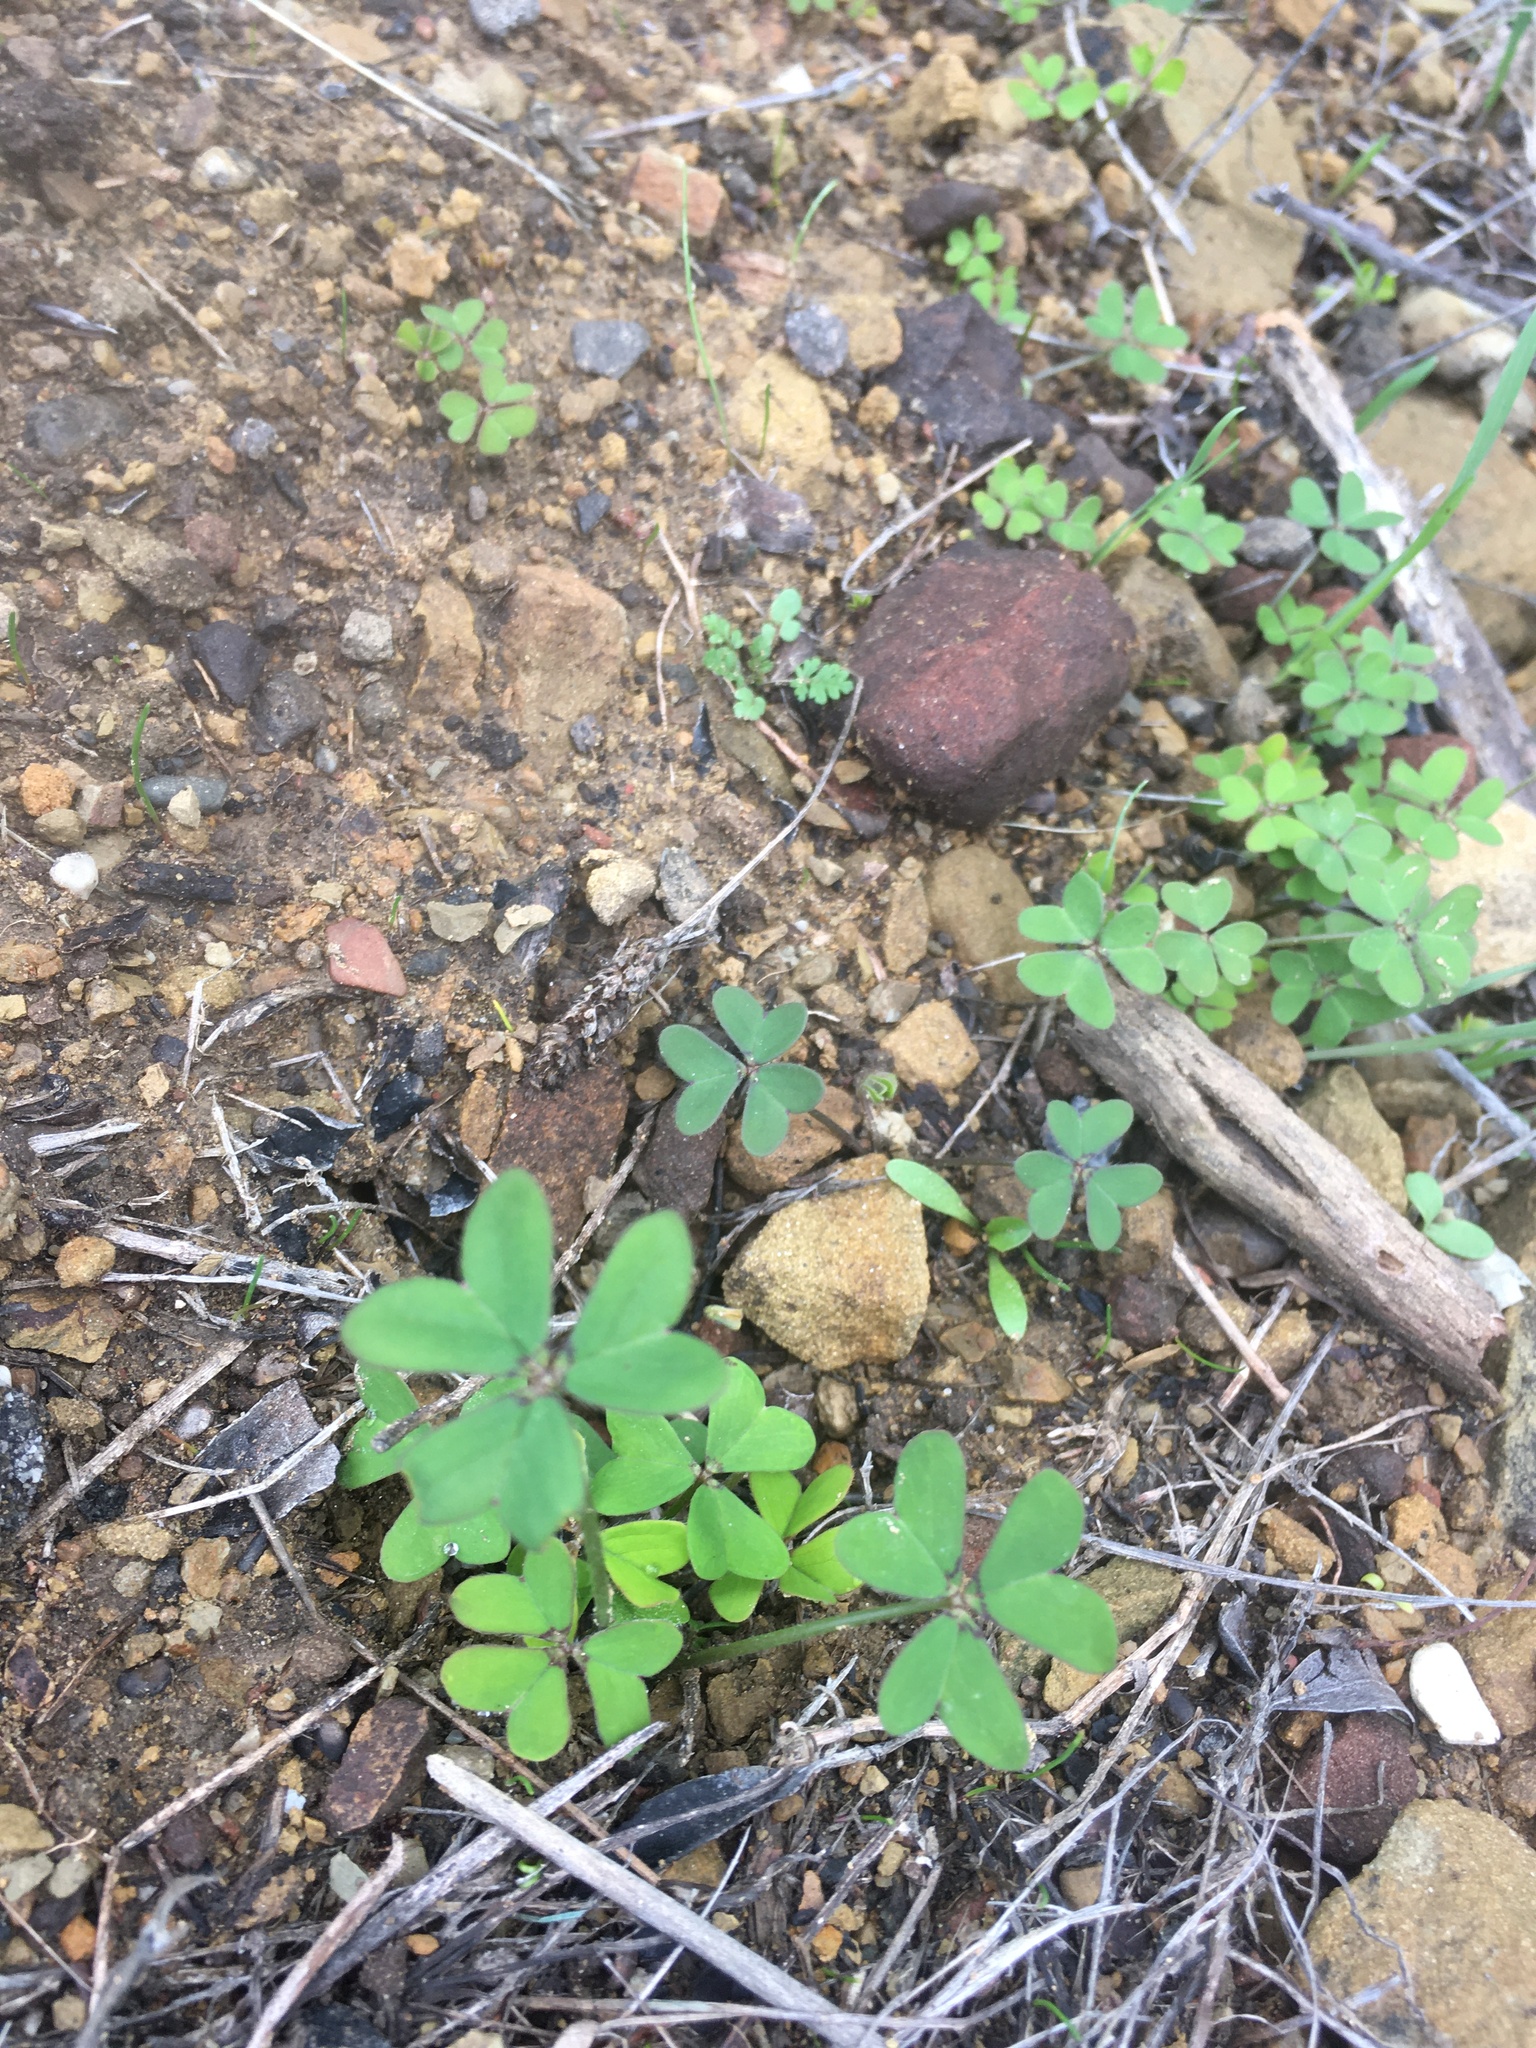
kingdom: Plantae
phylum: Tracheophyta
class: Magnoliopsida
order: Oxalidales
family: Oxalidaceae
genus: Oxalis
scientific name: Oxalis pes-caprae
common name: Bermuda-buttercup
